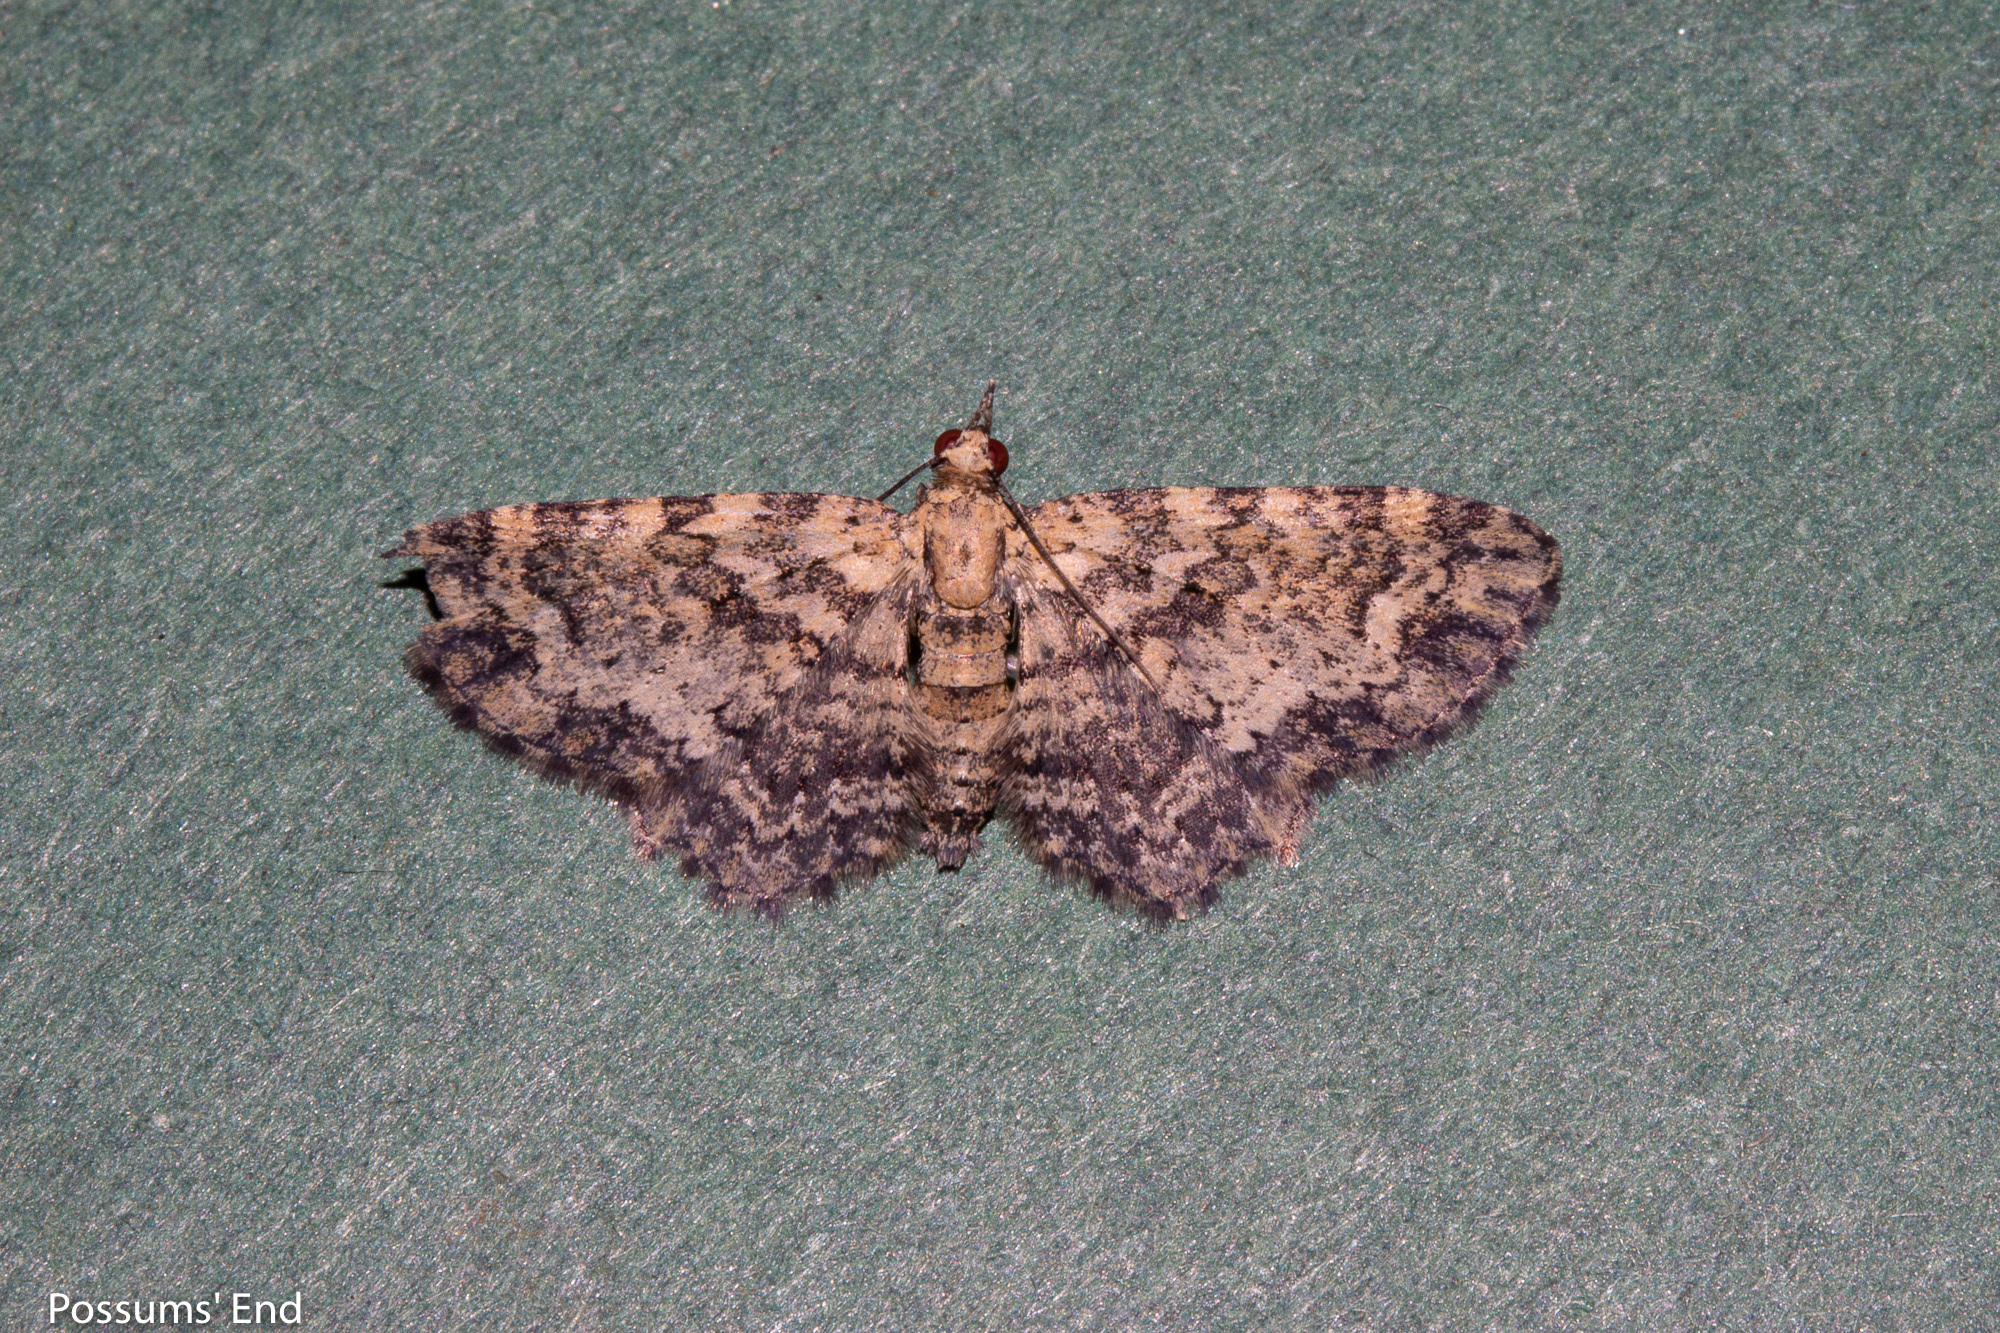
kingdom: Animalia
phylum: Arthropoda
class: Insecta
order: Lepidoptera
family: Geometridae
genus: Pasiphilodes
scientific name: Pasiphilodes testulata
